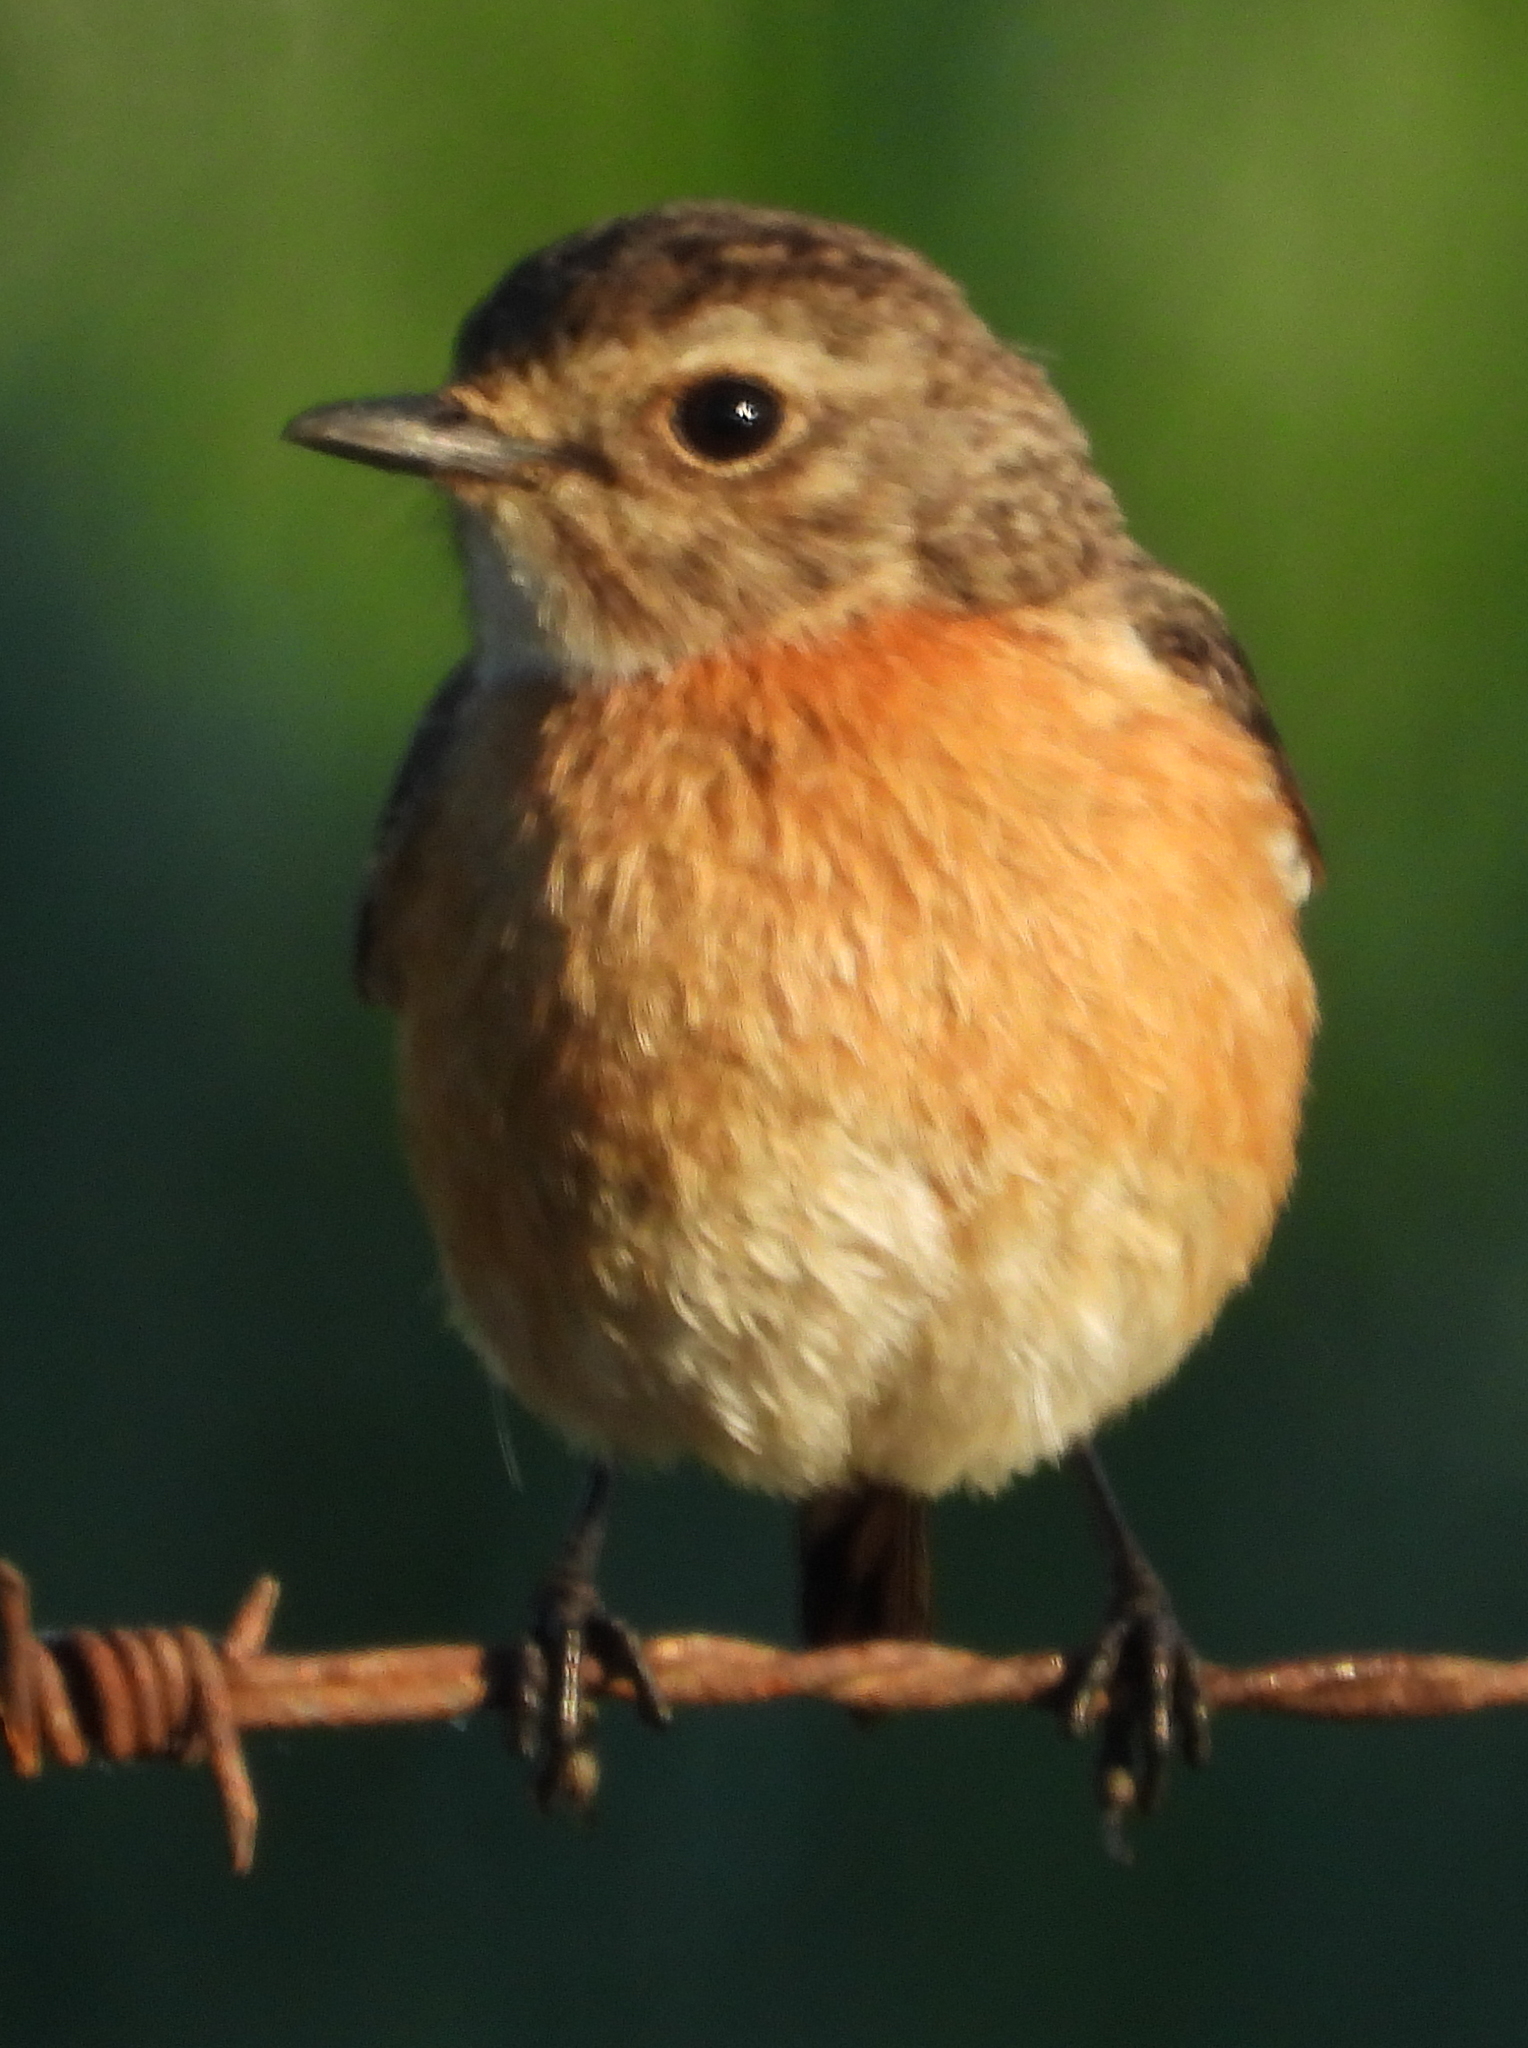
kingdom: Animalia
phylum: Chordata
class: Aves
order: Passeriformes
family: Muscicapidae
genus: Saxicola
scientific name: Saxicola torquatus
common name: African stonechat
